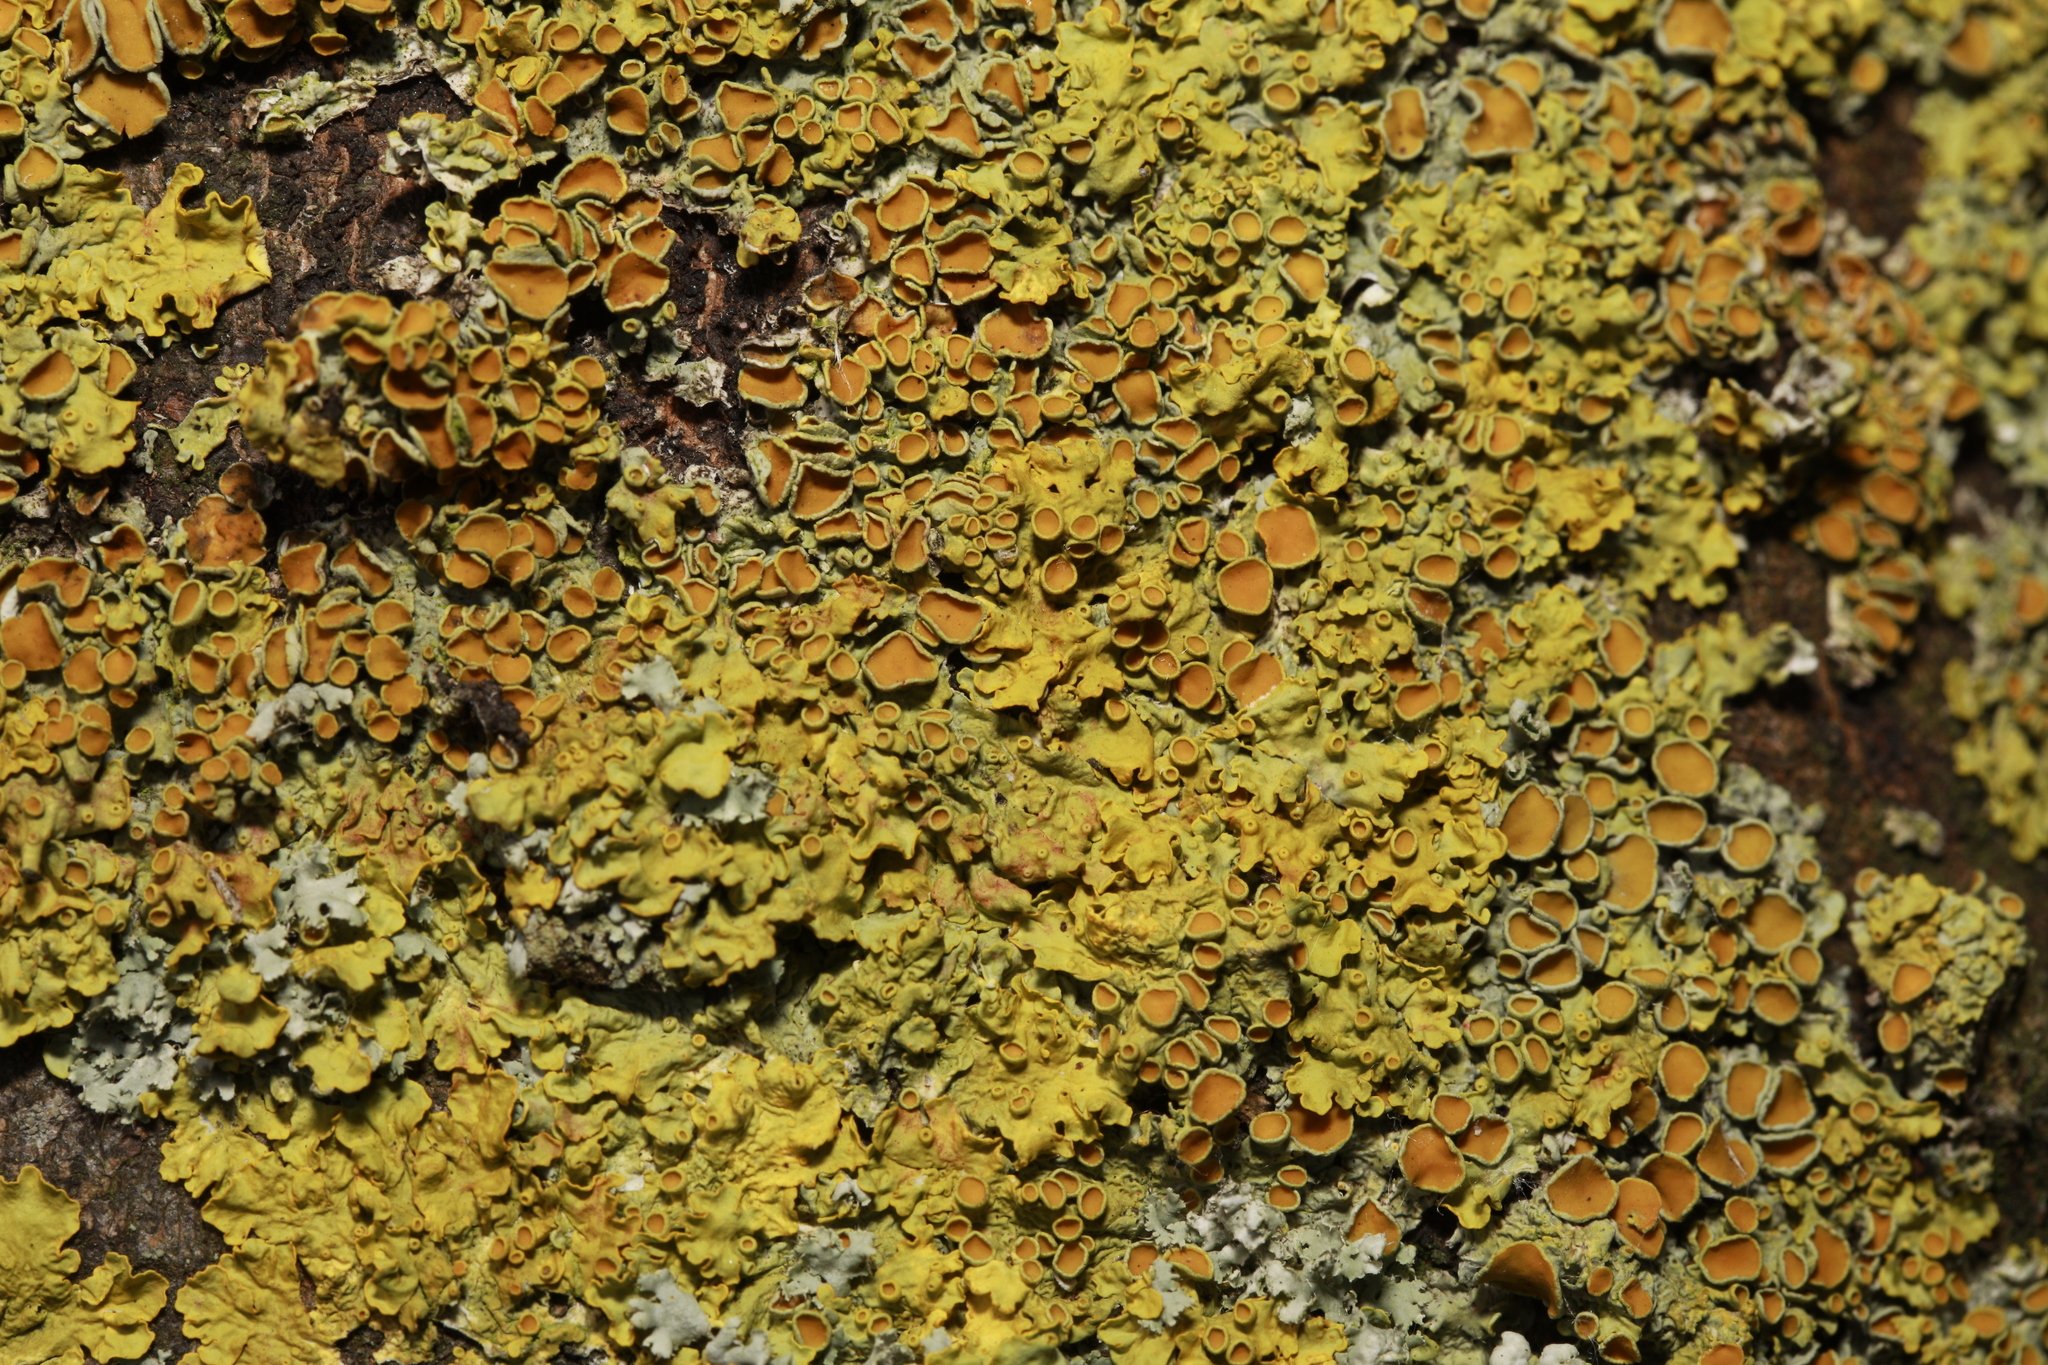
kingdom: Fungi
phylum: Ascomycota
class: Lecanoromycetes
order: Teloschistales
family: Teloschistaceae
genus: Xanthoria
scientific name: Xanthoria parietina
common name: Common orange lichen
